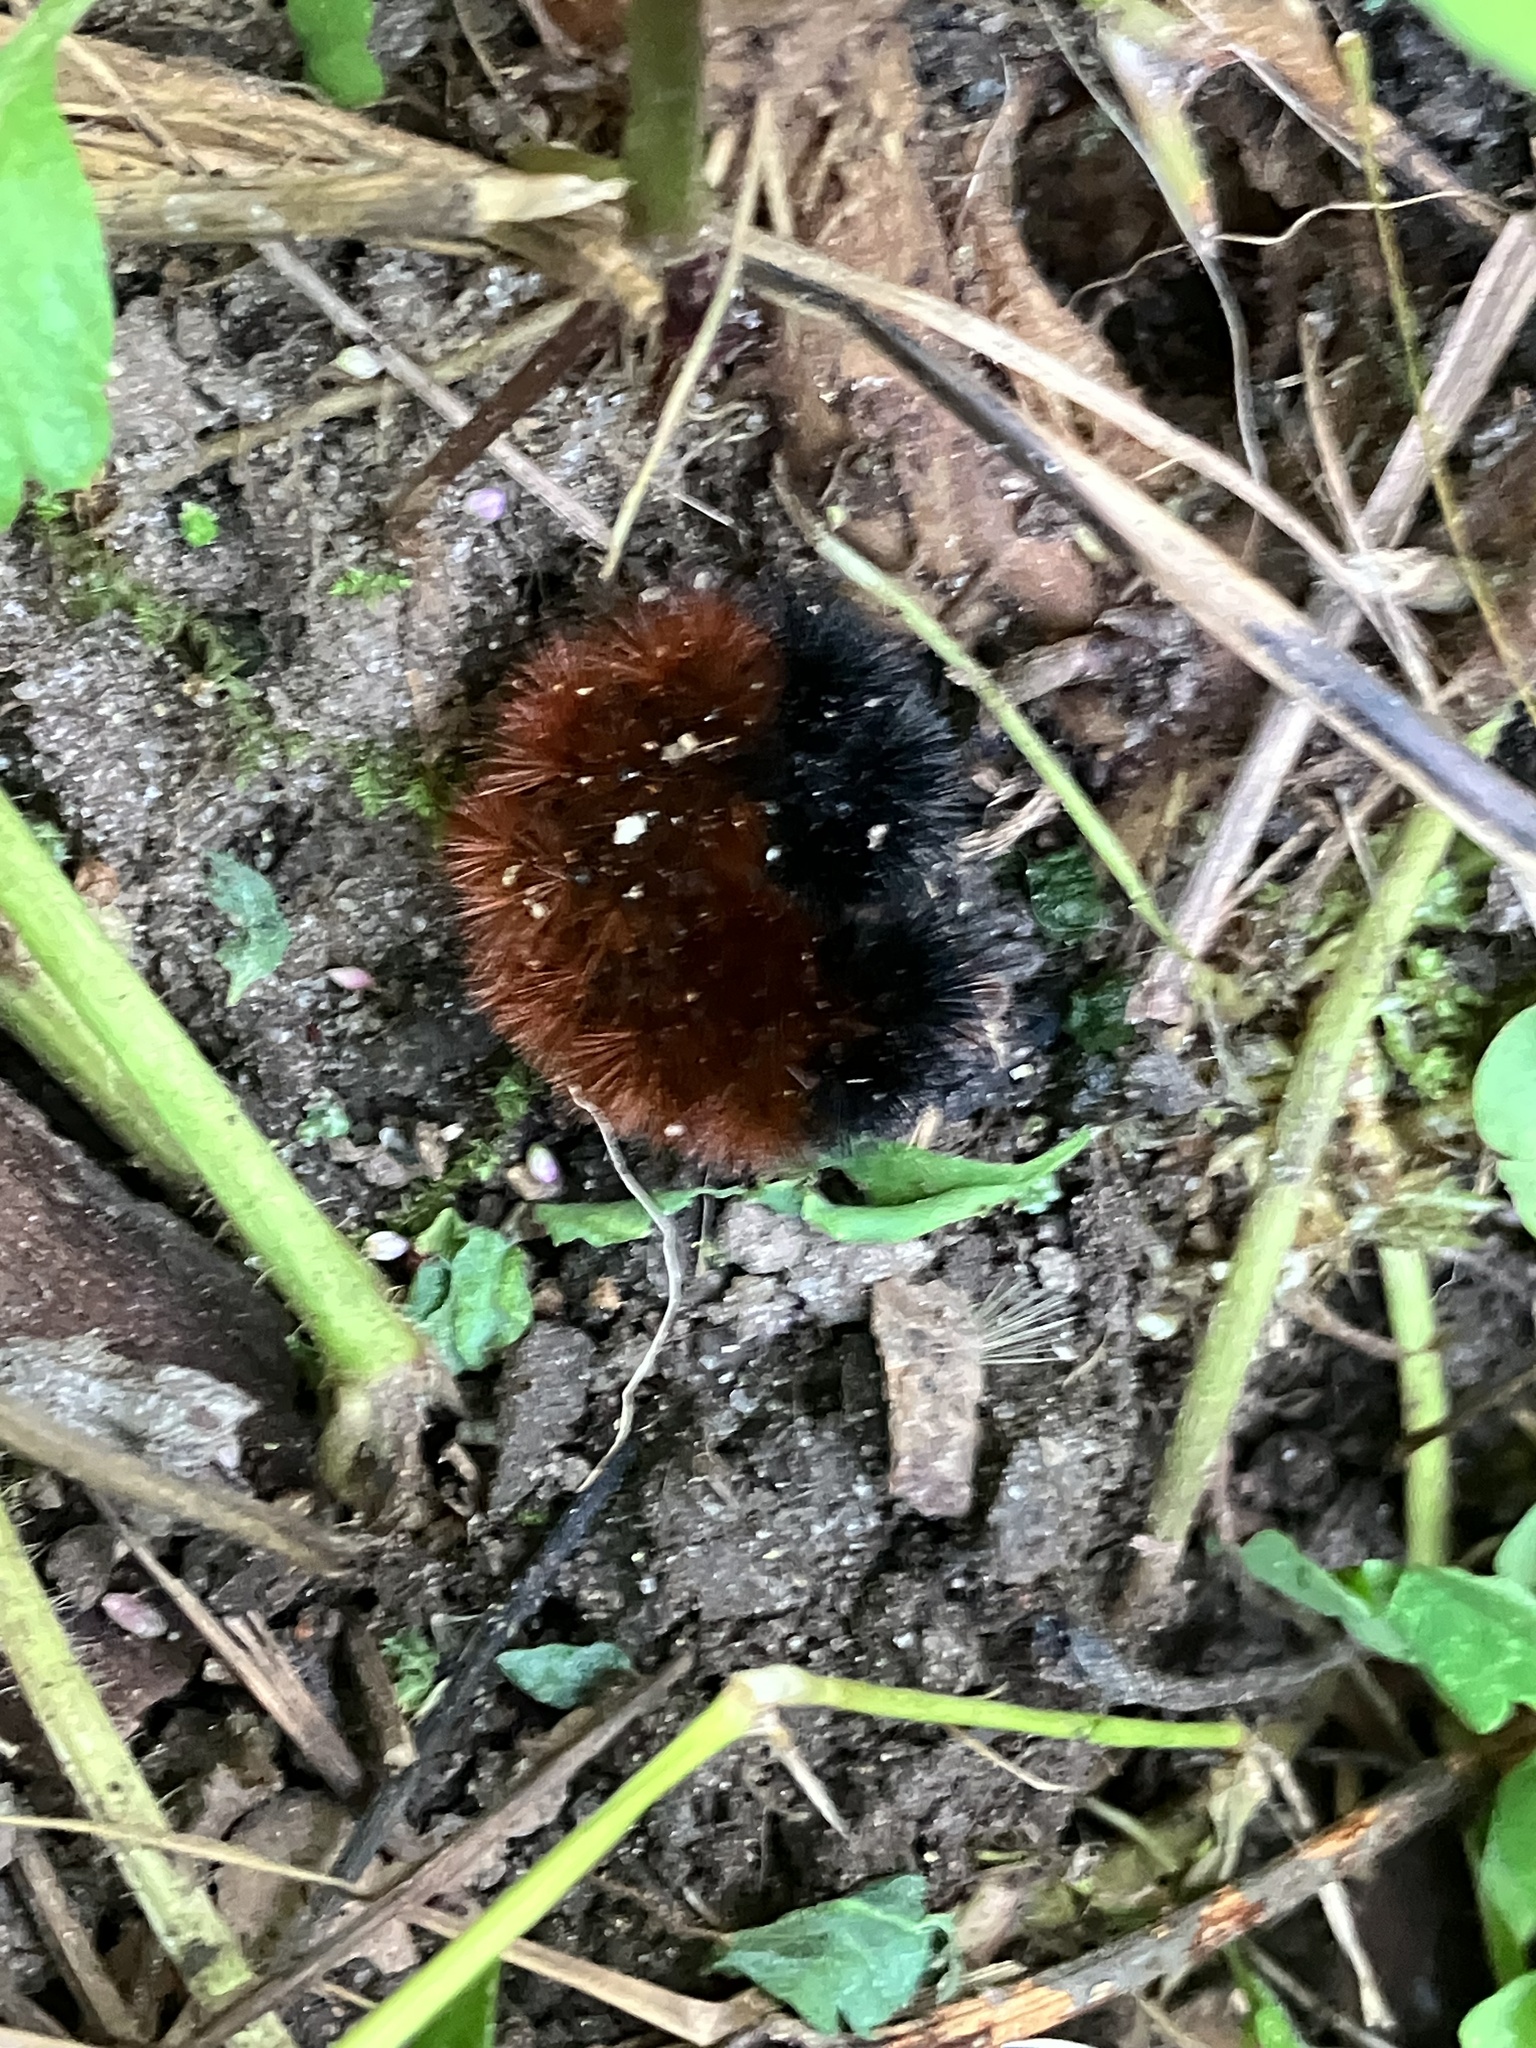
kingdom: Animalia
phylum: Arthropoda
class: Insecta
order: Lepidoptera
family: Erebidae
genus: Pyrrharctia
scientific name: Pyrrharctia isabella
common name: Isabella tiger moth
